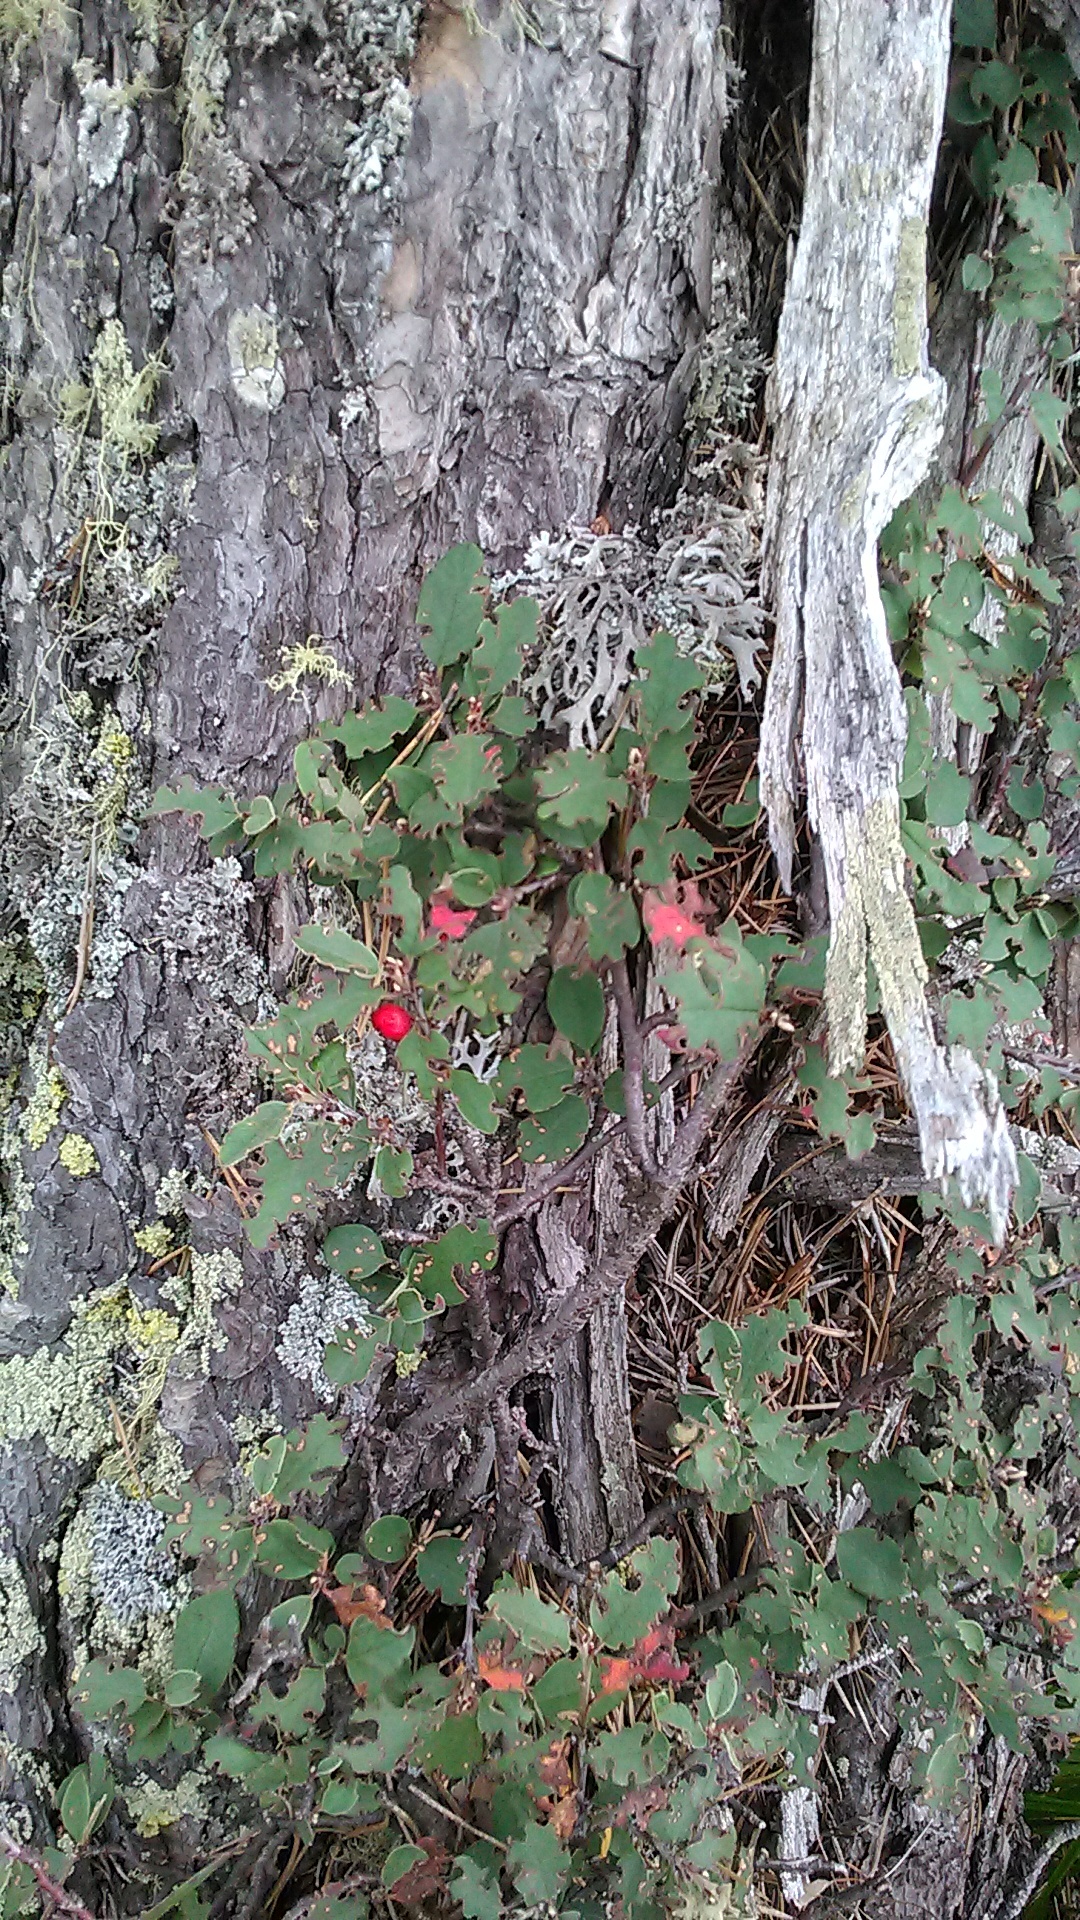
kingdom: Plantae
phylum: Tracheophyta
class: Magnoliopsida
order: Rosales
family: Rosaceae
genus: Cotoneaster
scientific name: Cotoneaster integerrimus
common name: Wild cotoneaster
